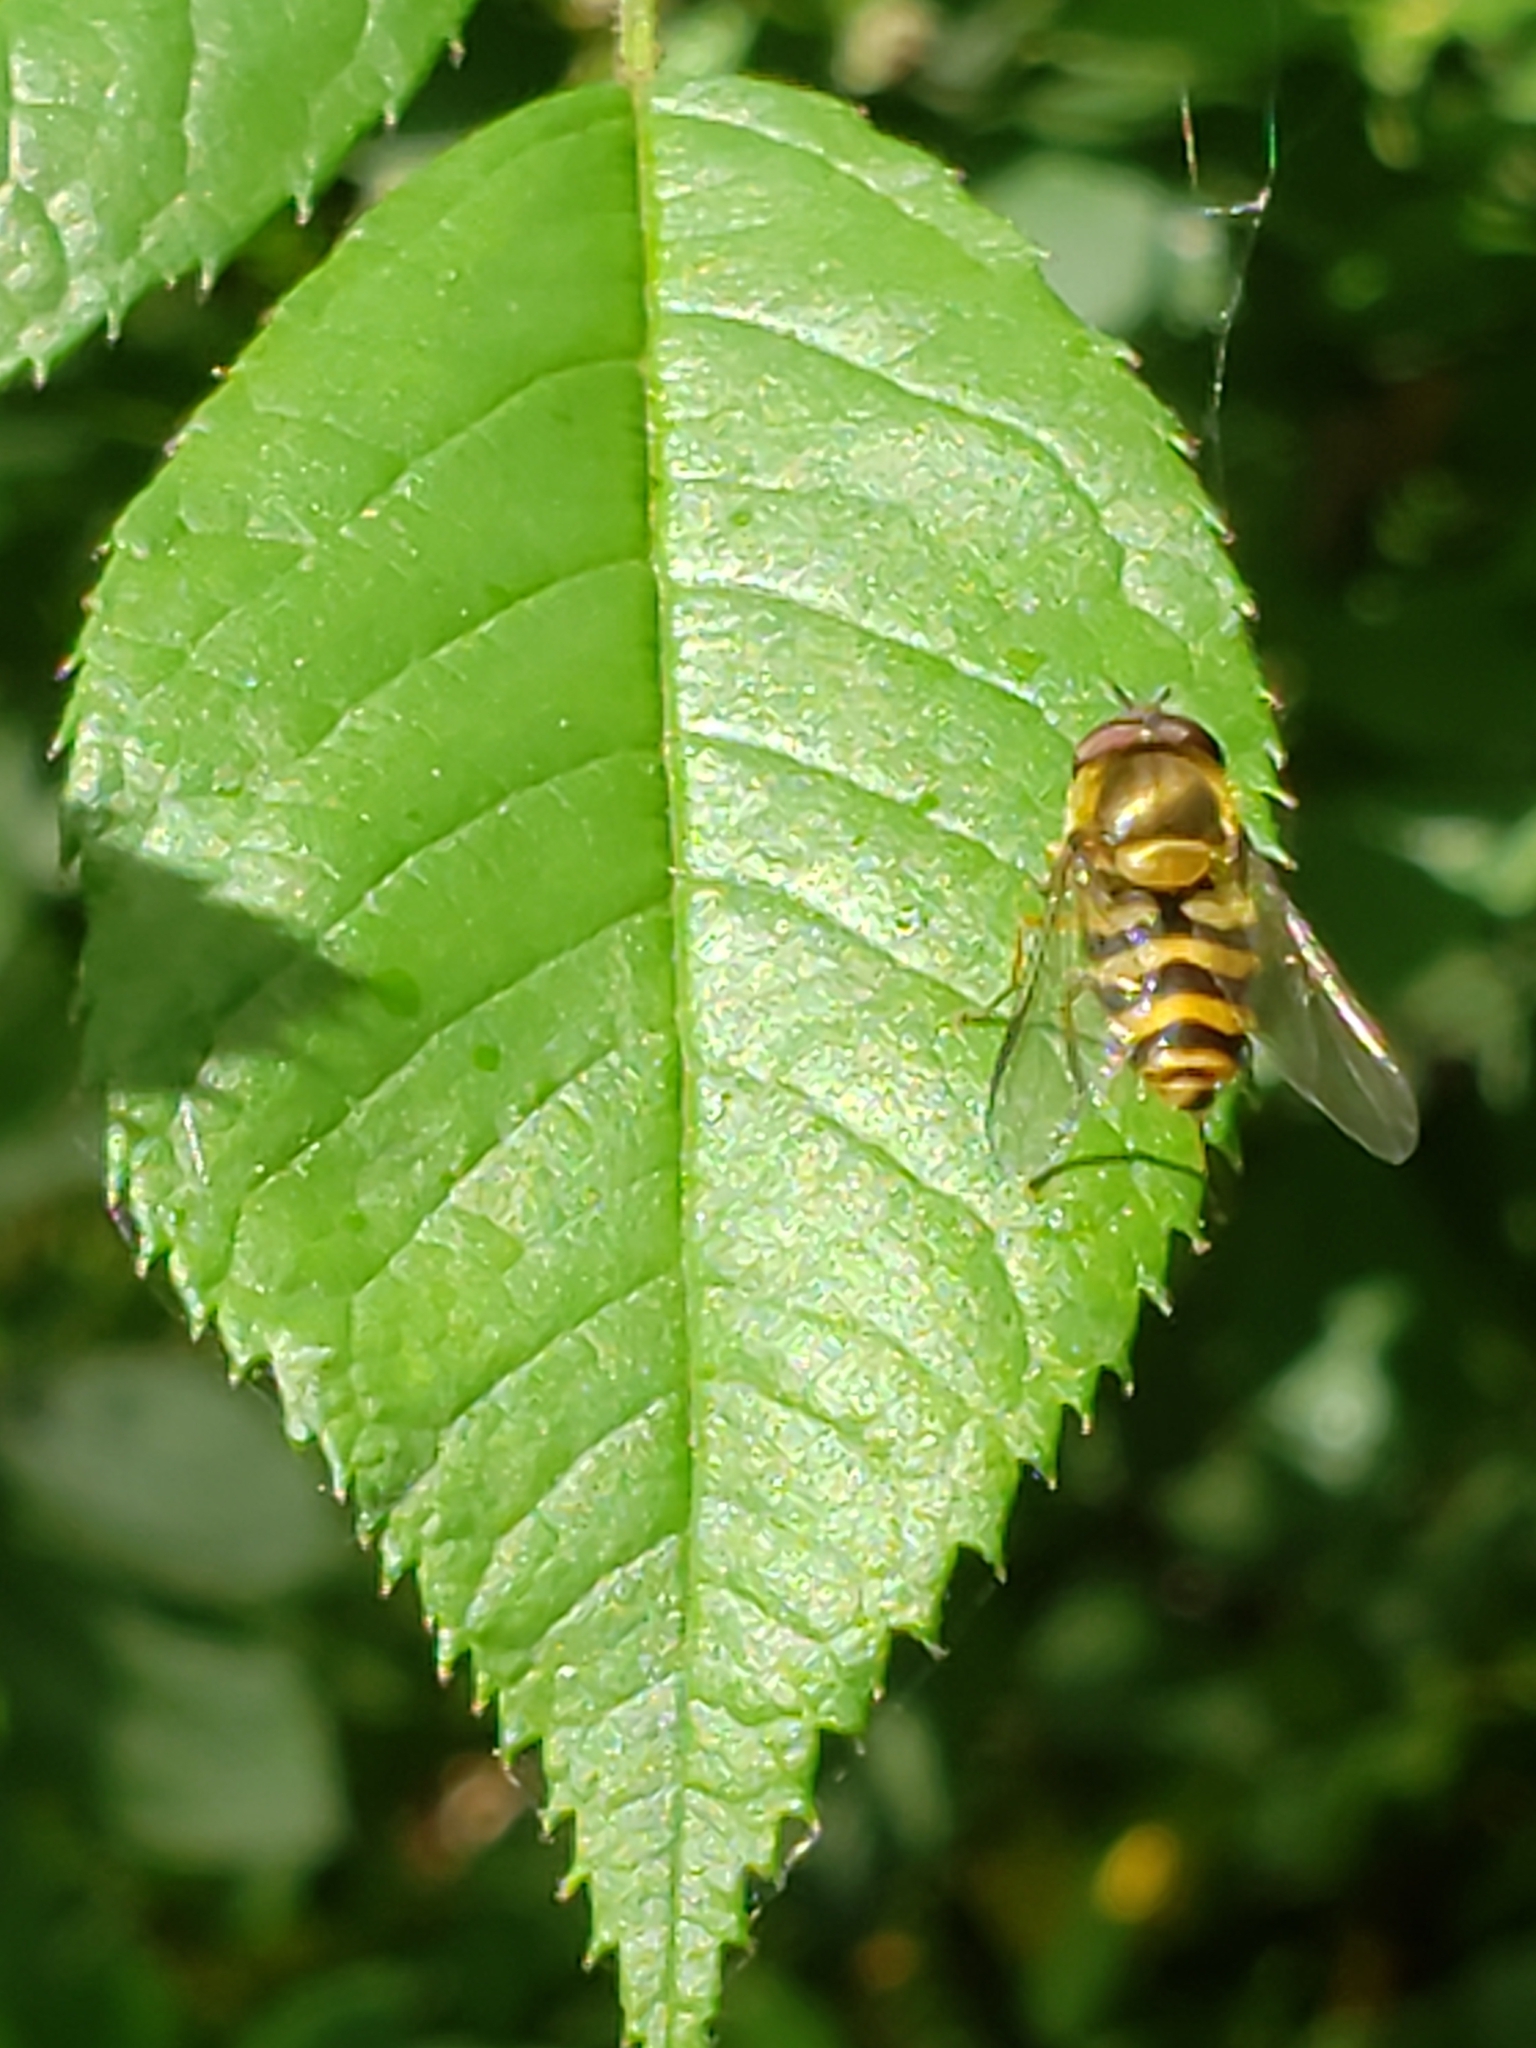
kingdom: Animalia
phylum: Arthropoda
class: Insecta
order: Diptera
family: Syrphidae
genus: Syrphus
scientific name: Syrphus
